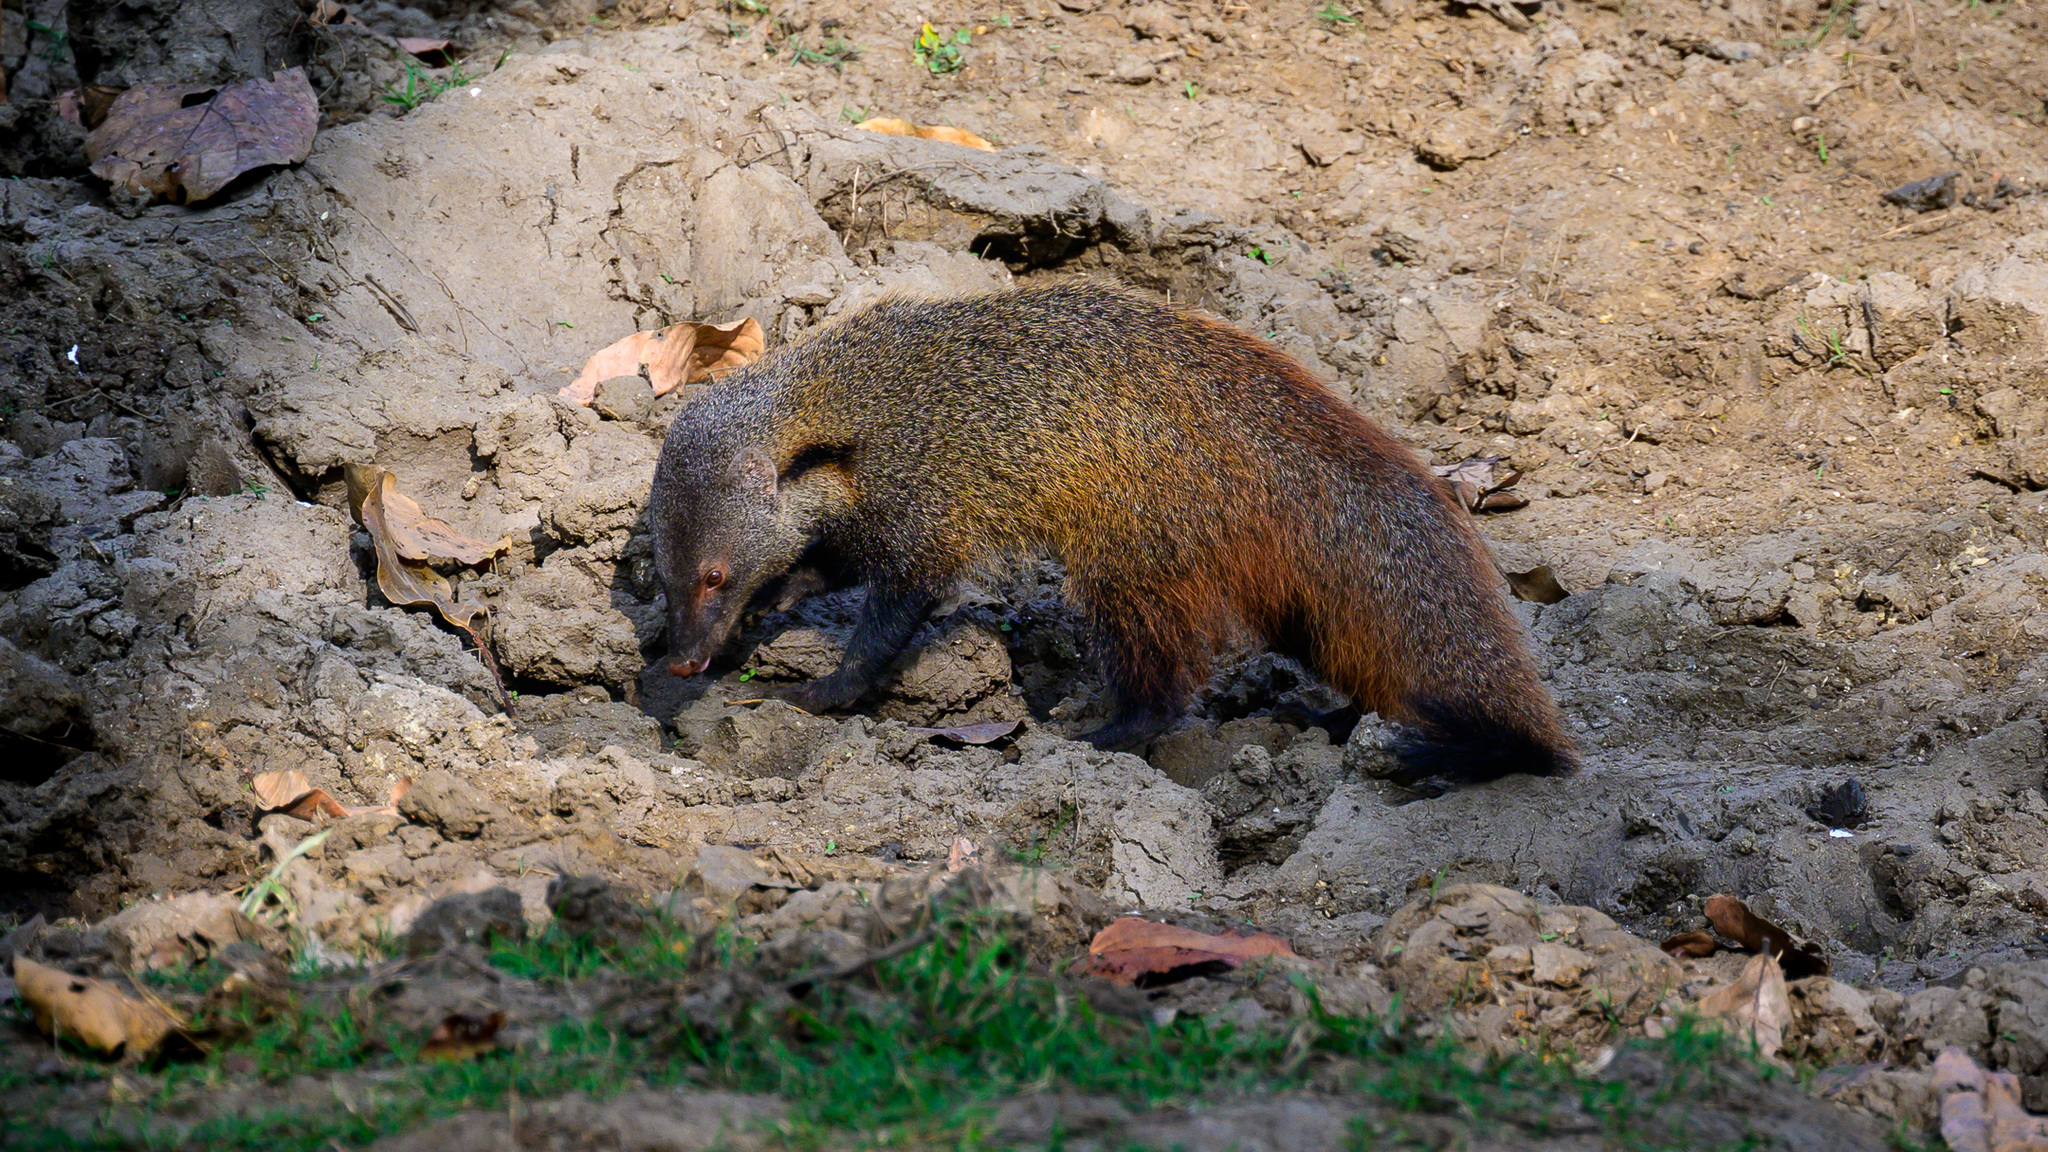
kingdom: Animalia
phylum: Chordata
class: Mammalia
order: Carnivora
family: Herpestidae
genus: Herpestes
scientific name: Herpestes vitticollis
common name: Stripe-necked mongoose
